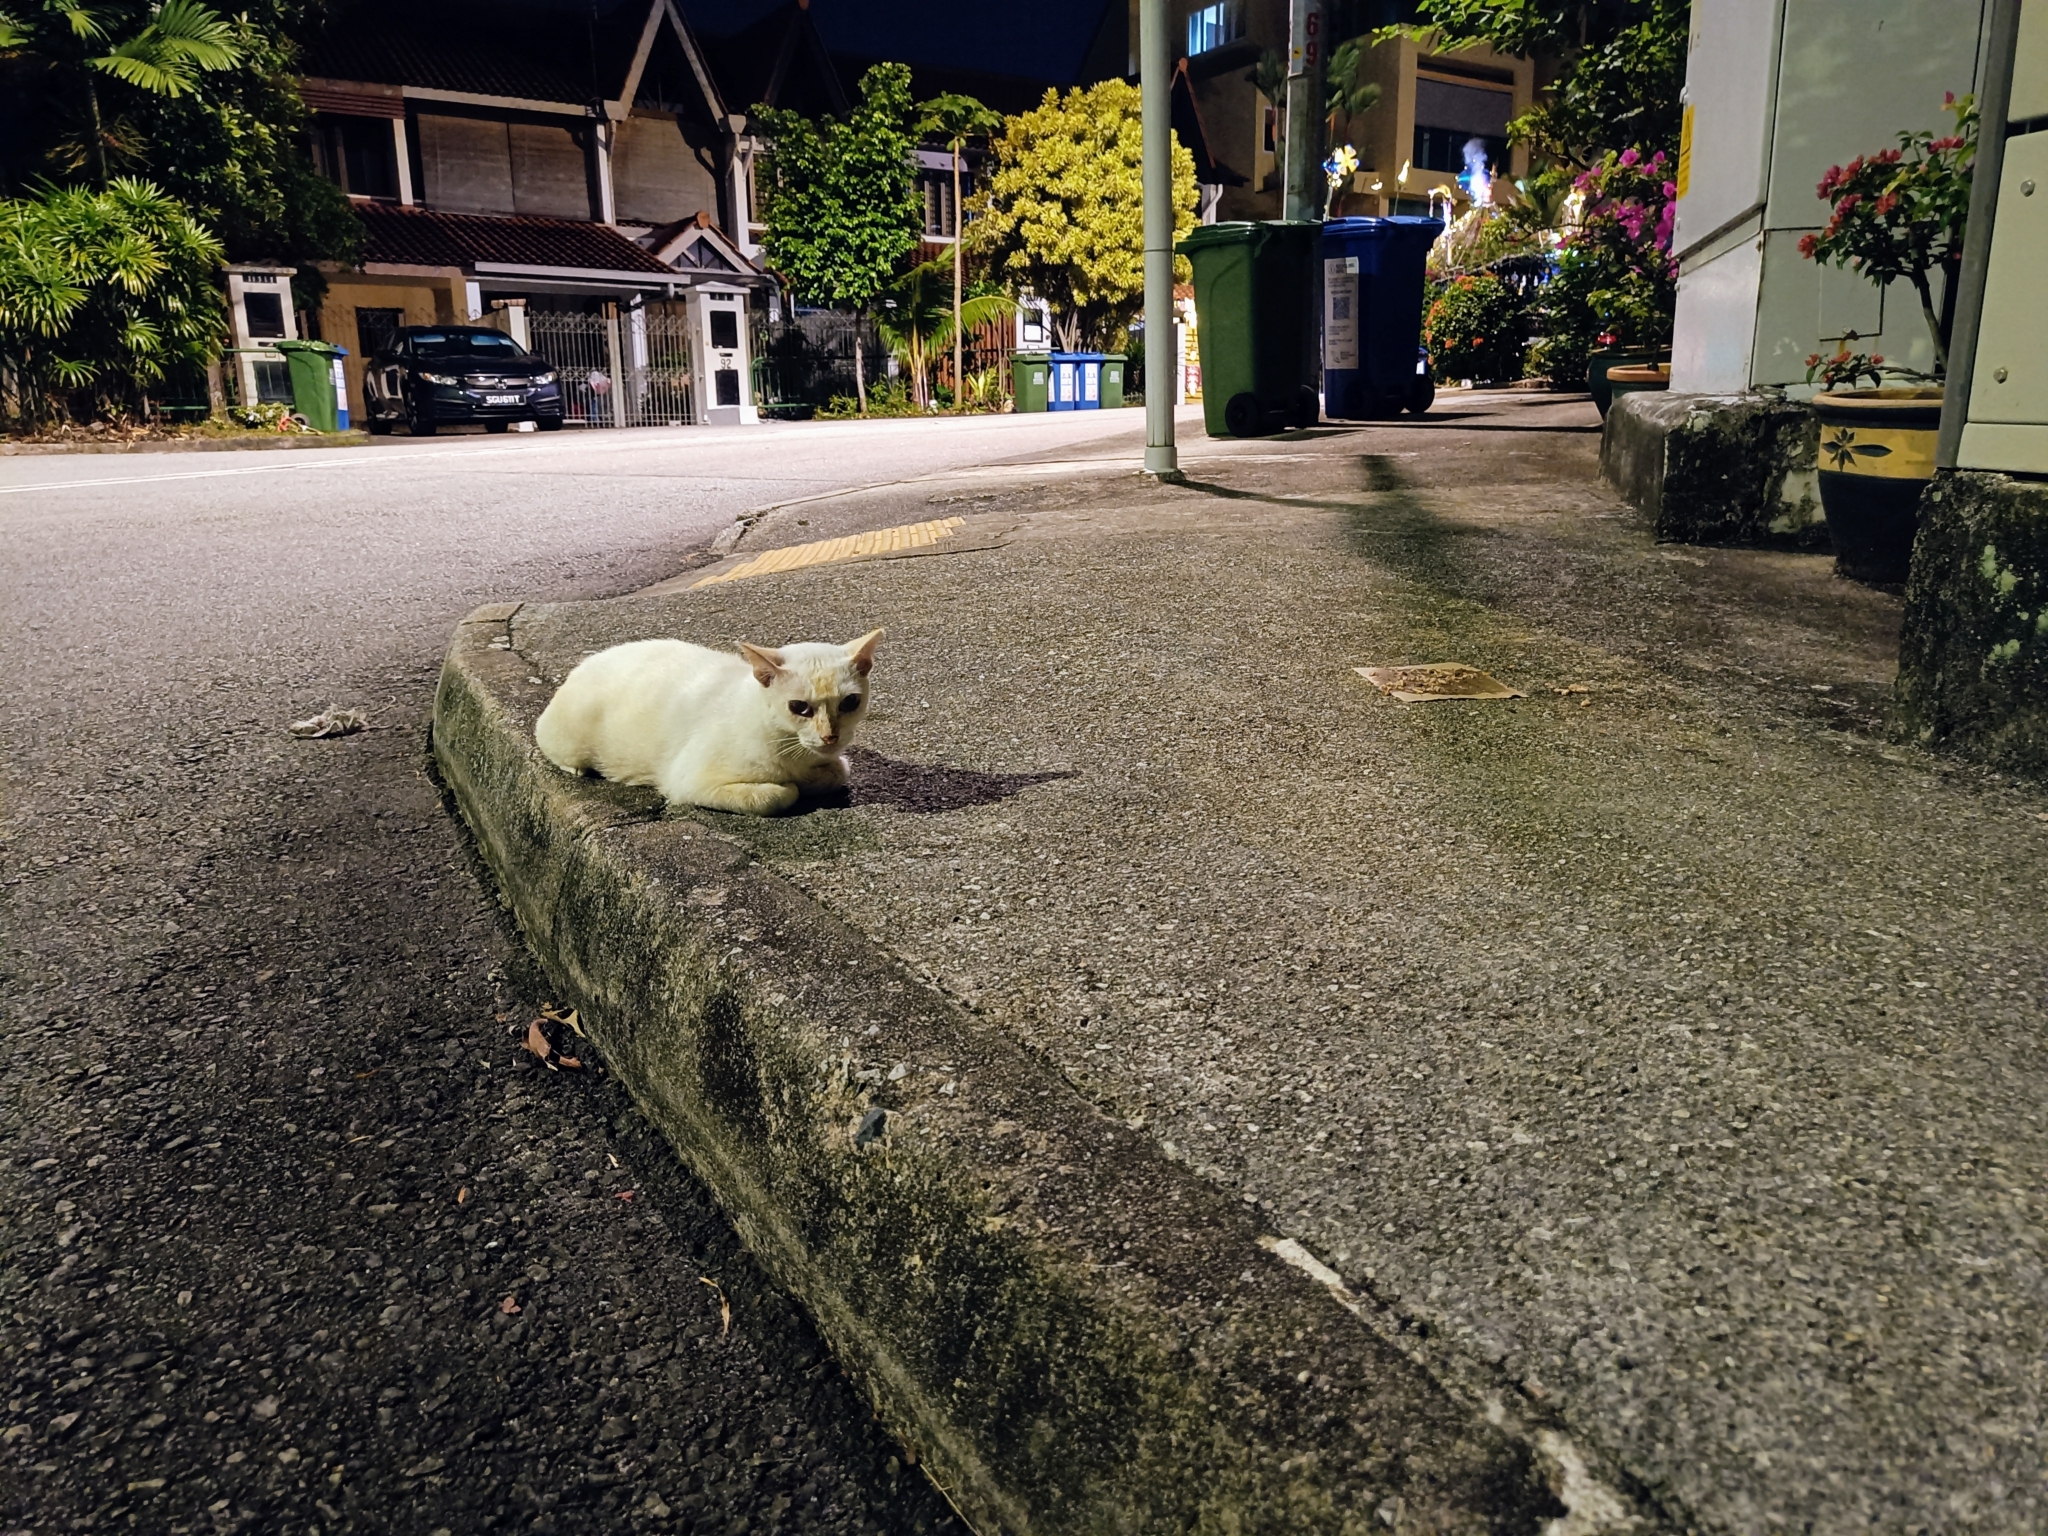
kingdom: Animalia
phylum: Chordata
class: Mammalia
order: Carnivora
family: Felidae
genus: Felis
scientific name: Felis catus
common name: Domestic cat
